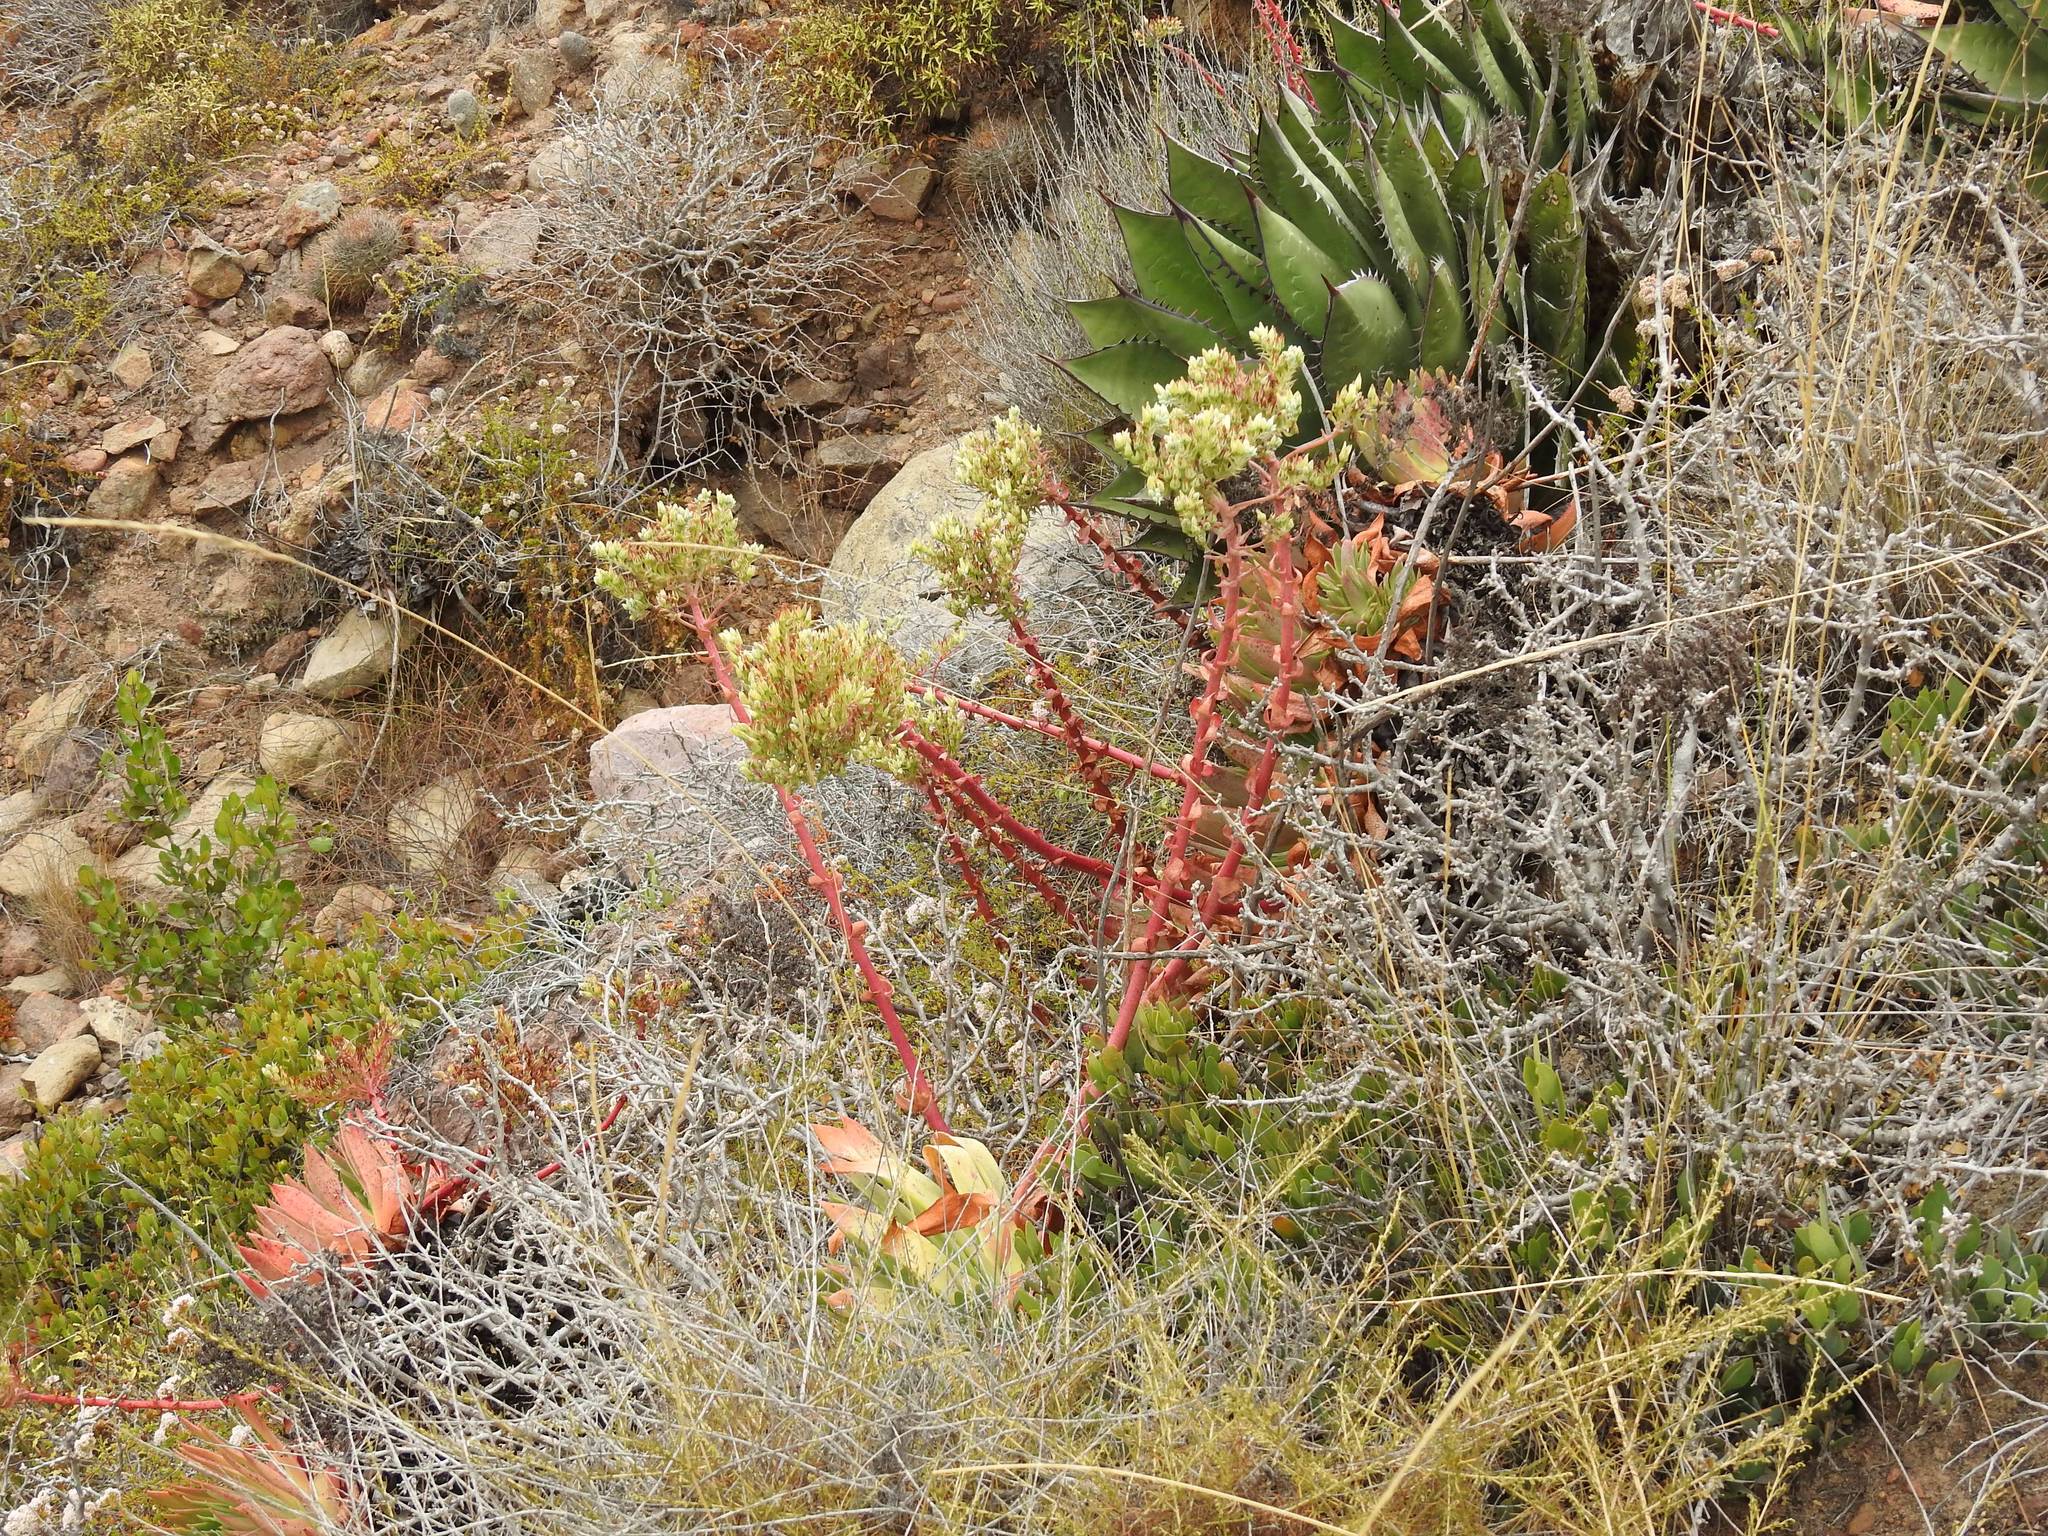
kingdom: Plantae
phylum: Tracheophyta
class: Magnoliopsida
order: Saxifragales
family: Crassulaceae
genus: Dudleya
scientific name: Dudleya brittonii
